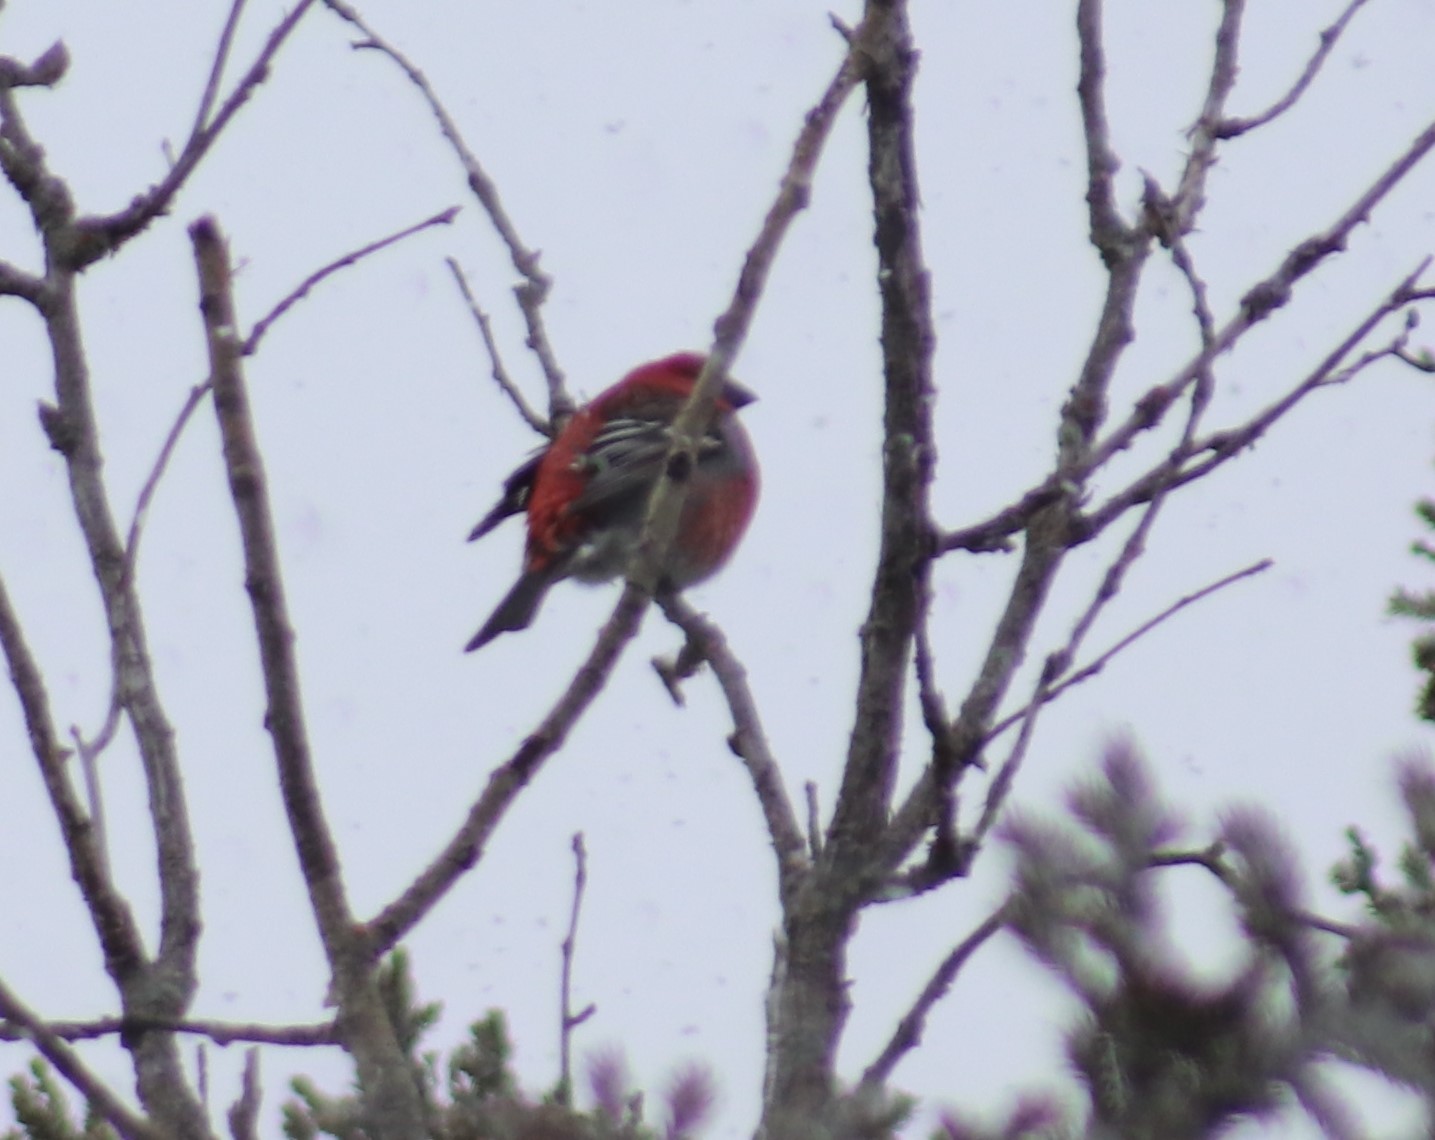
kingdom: Animalia
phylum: Chordata
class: Aves
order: Passeriformes
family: Fringillidae
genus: Pinicola
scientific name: Pinicola enucleator
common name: Pine grosbeak
